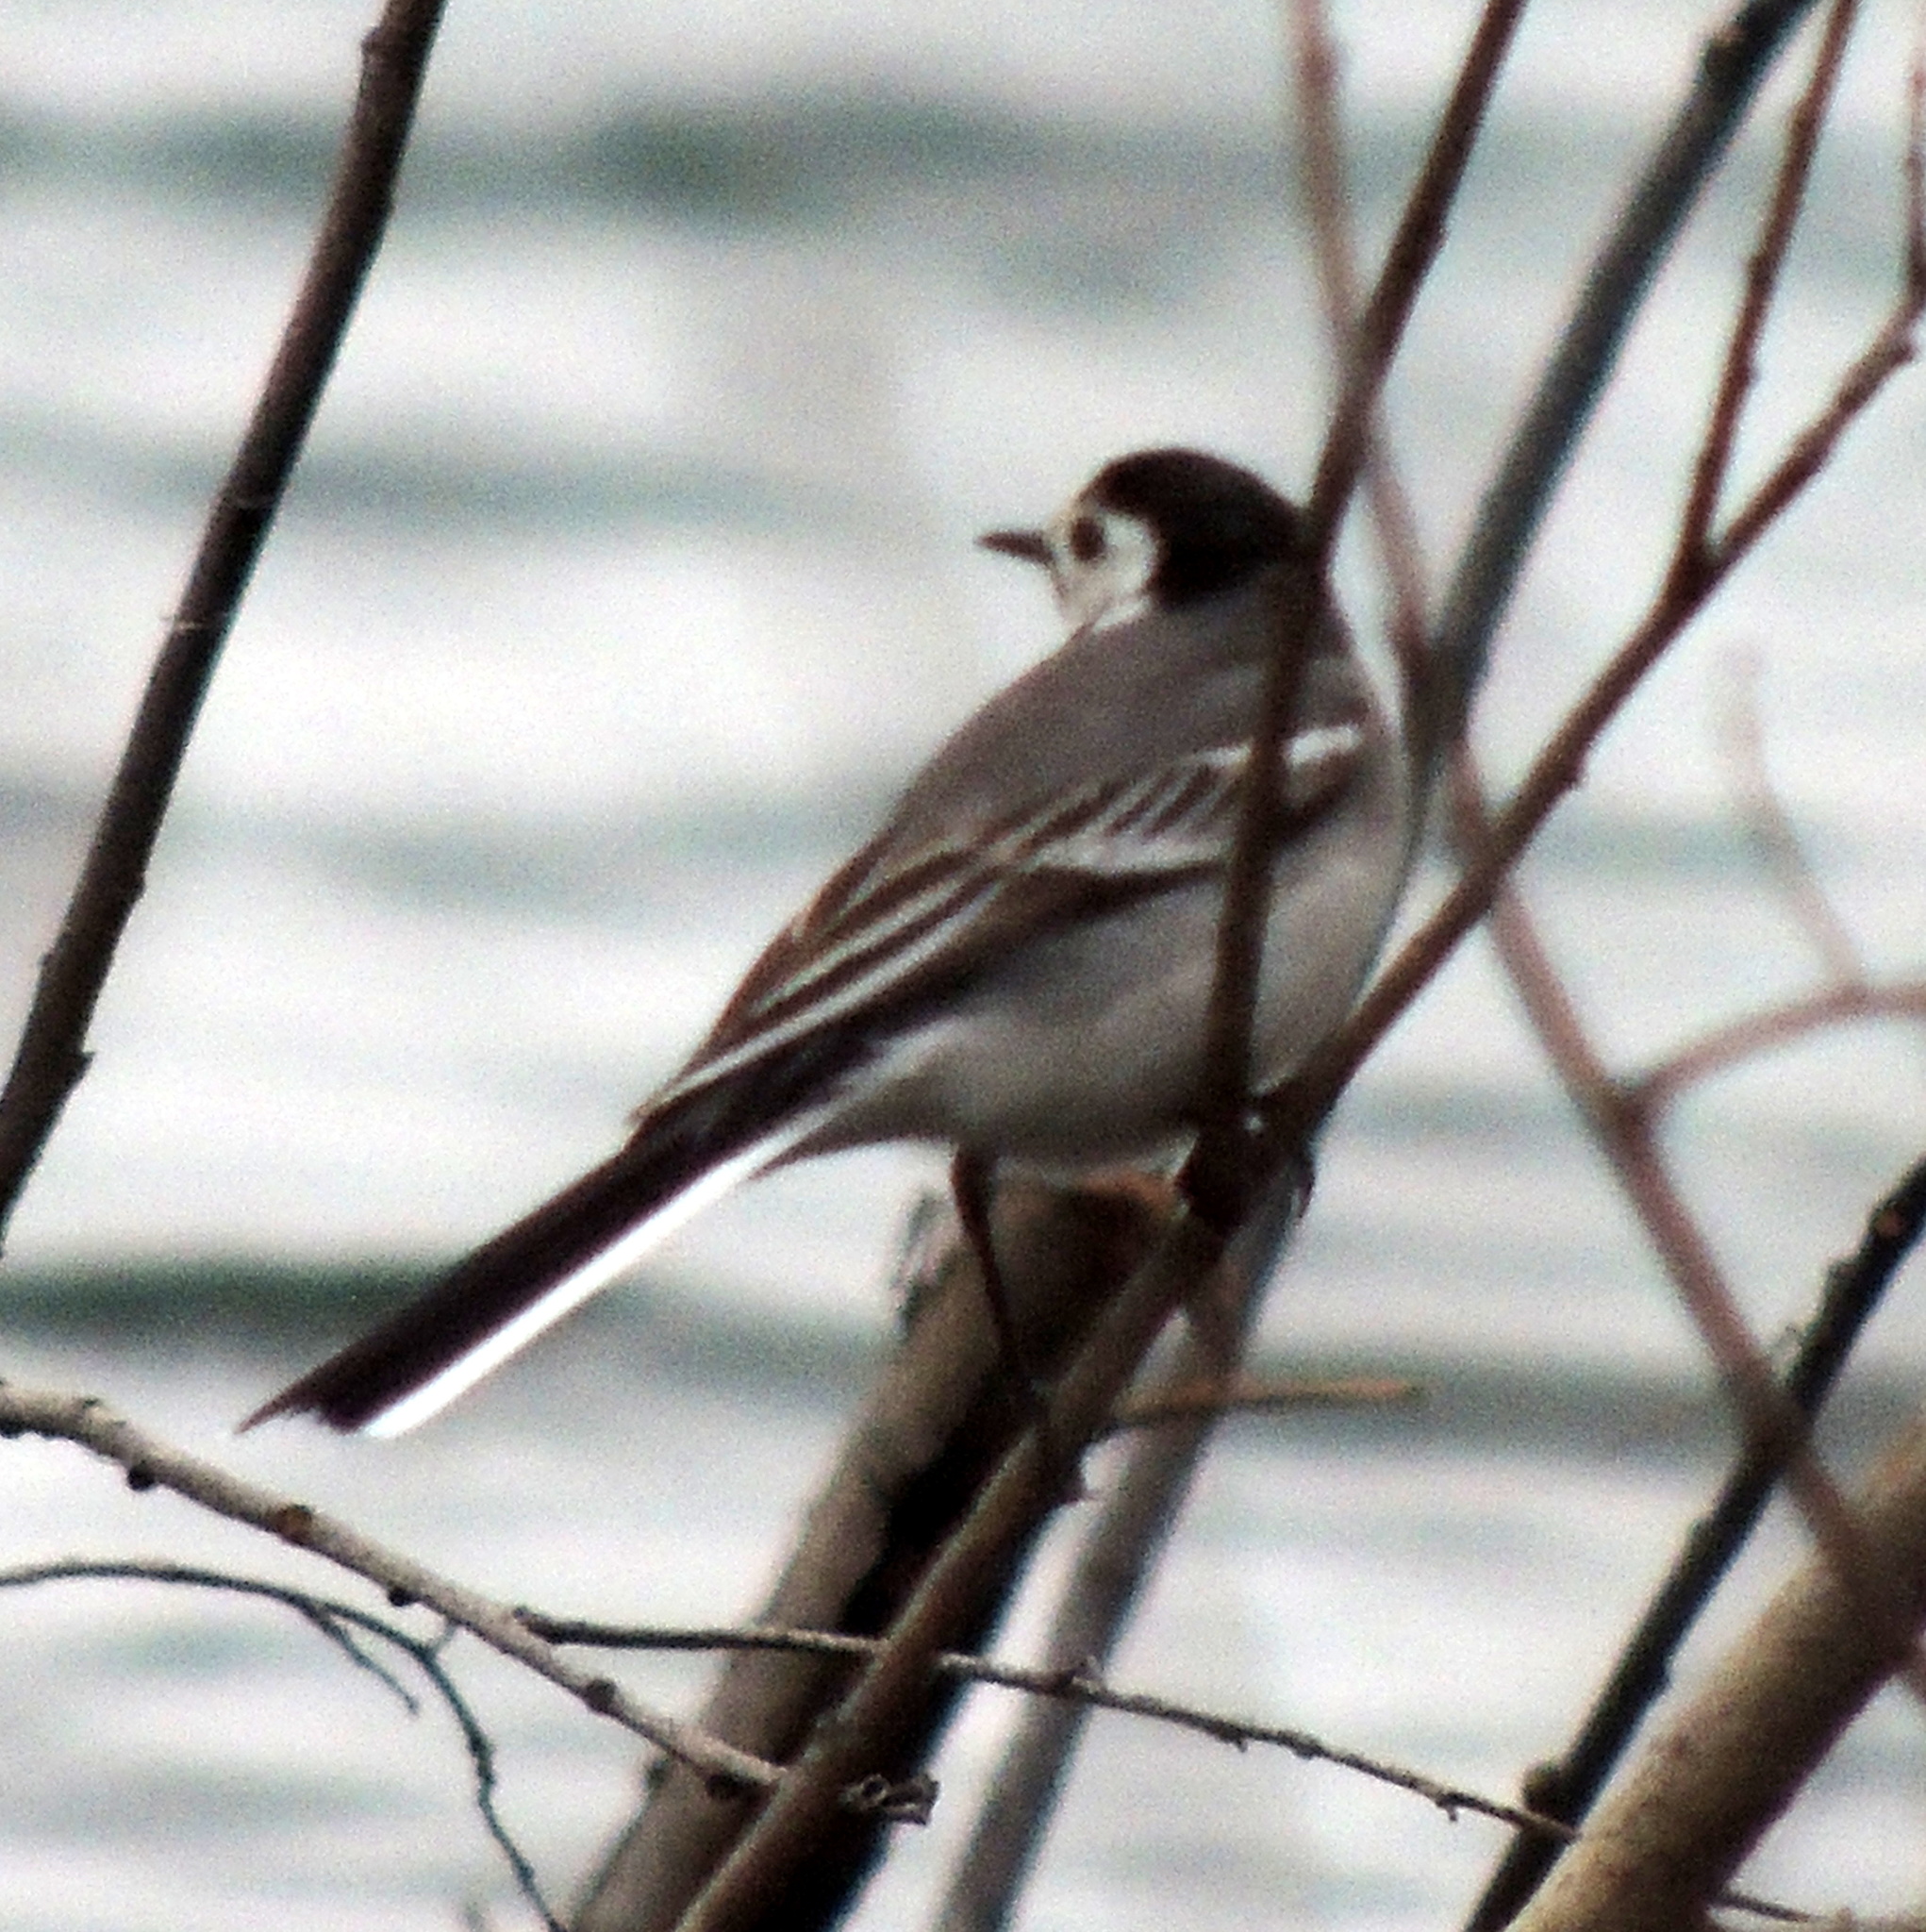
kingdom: Animalia
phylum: Chordata
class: Aves
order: Passeriformes
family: Motacillidae
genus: Motacilla
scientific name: Motacilla alba
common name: White wagtail
